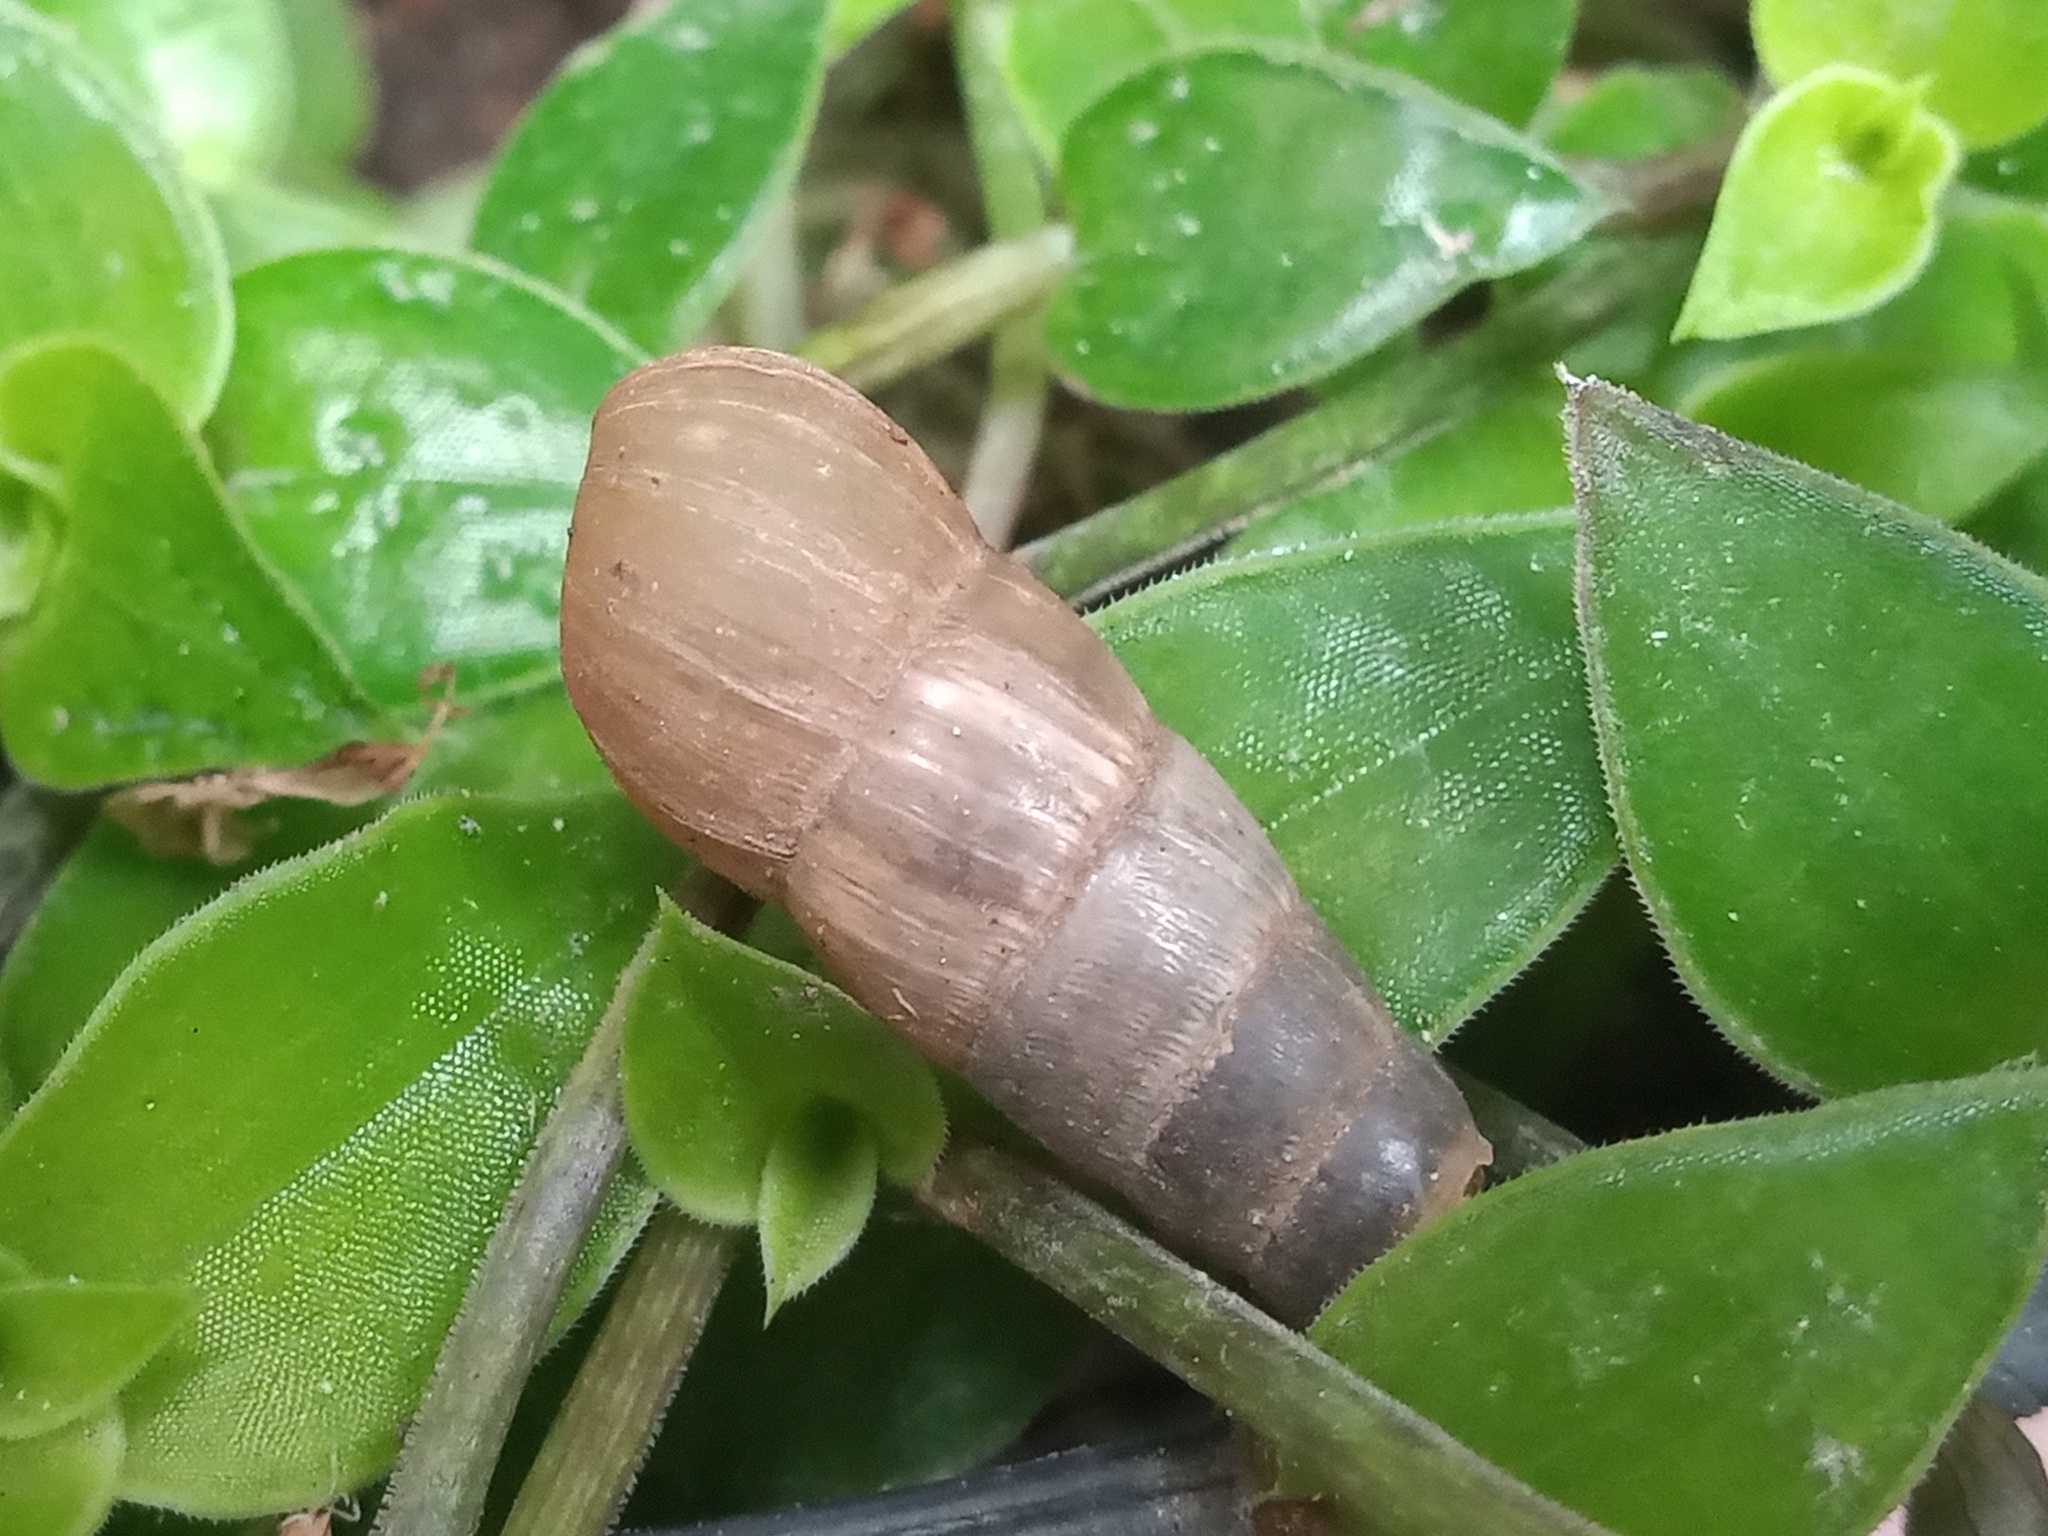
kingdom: Animalia
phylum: Mollusca
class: Gastropoda
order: Stylommatophora
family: Achatinidae
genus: Rumina
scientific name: Rumina decollata
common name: Decollate snail
